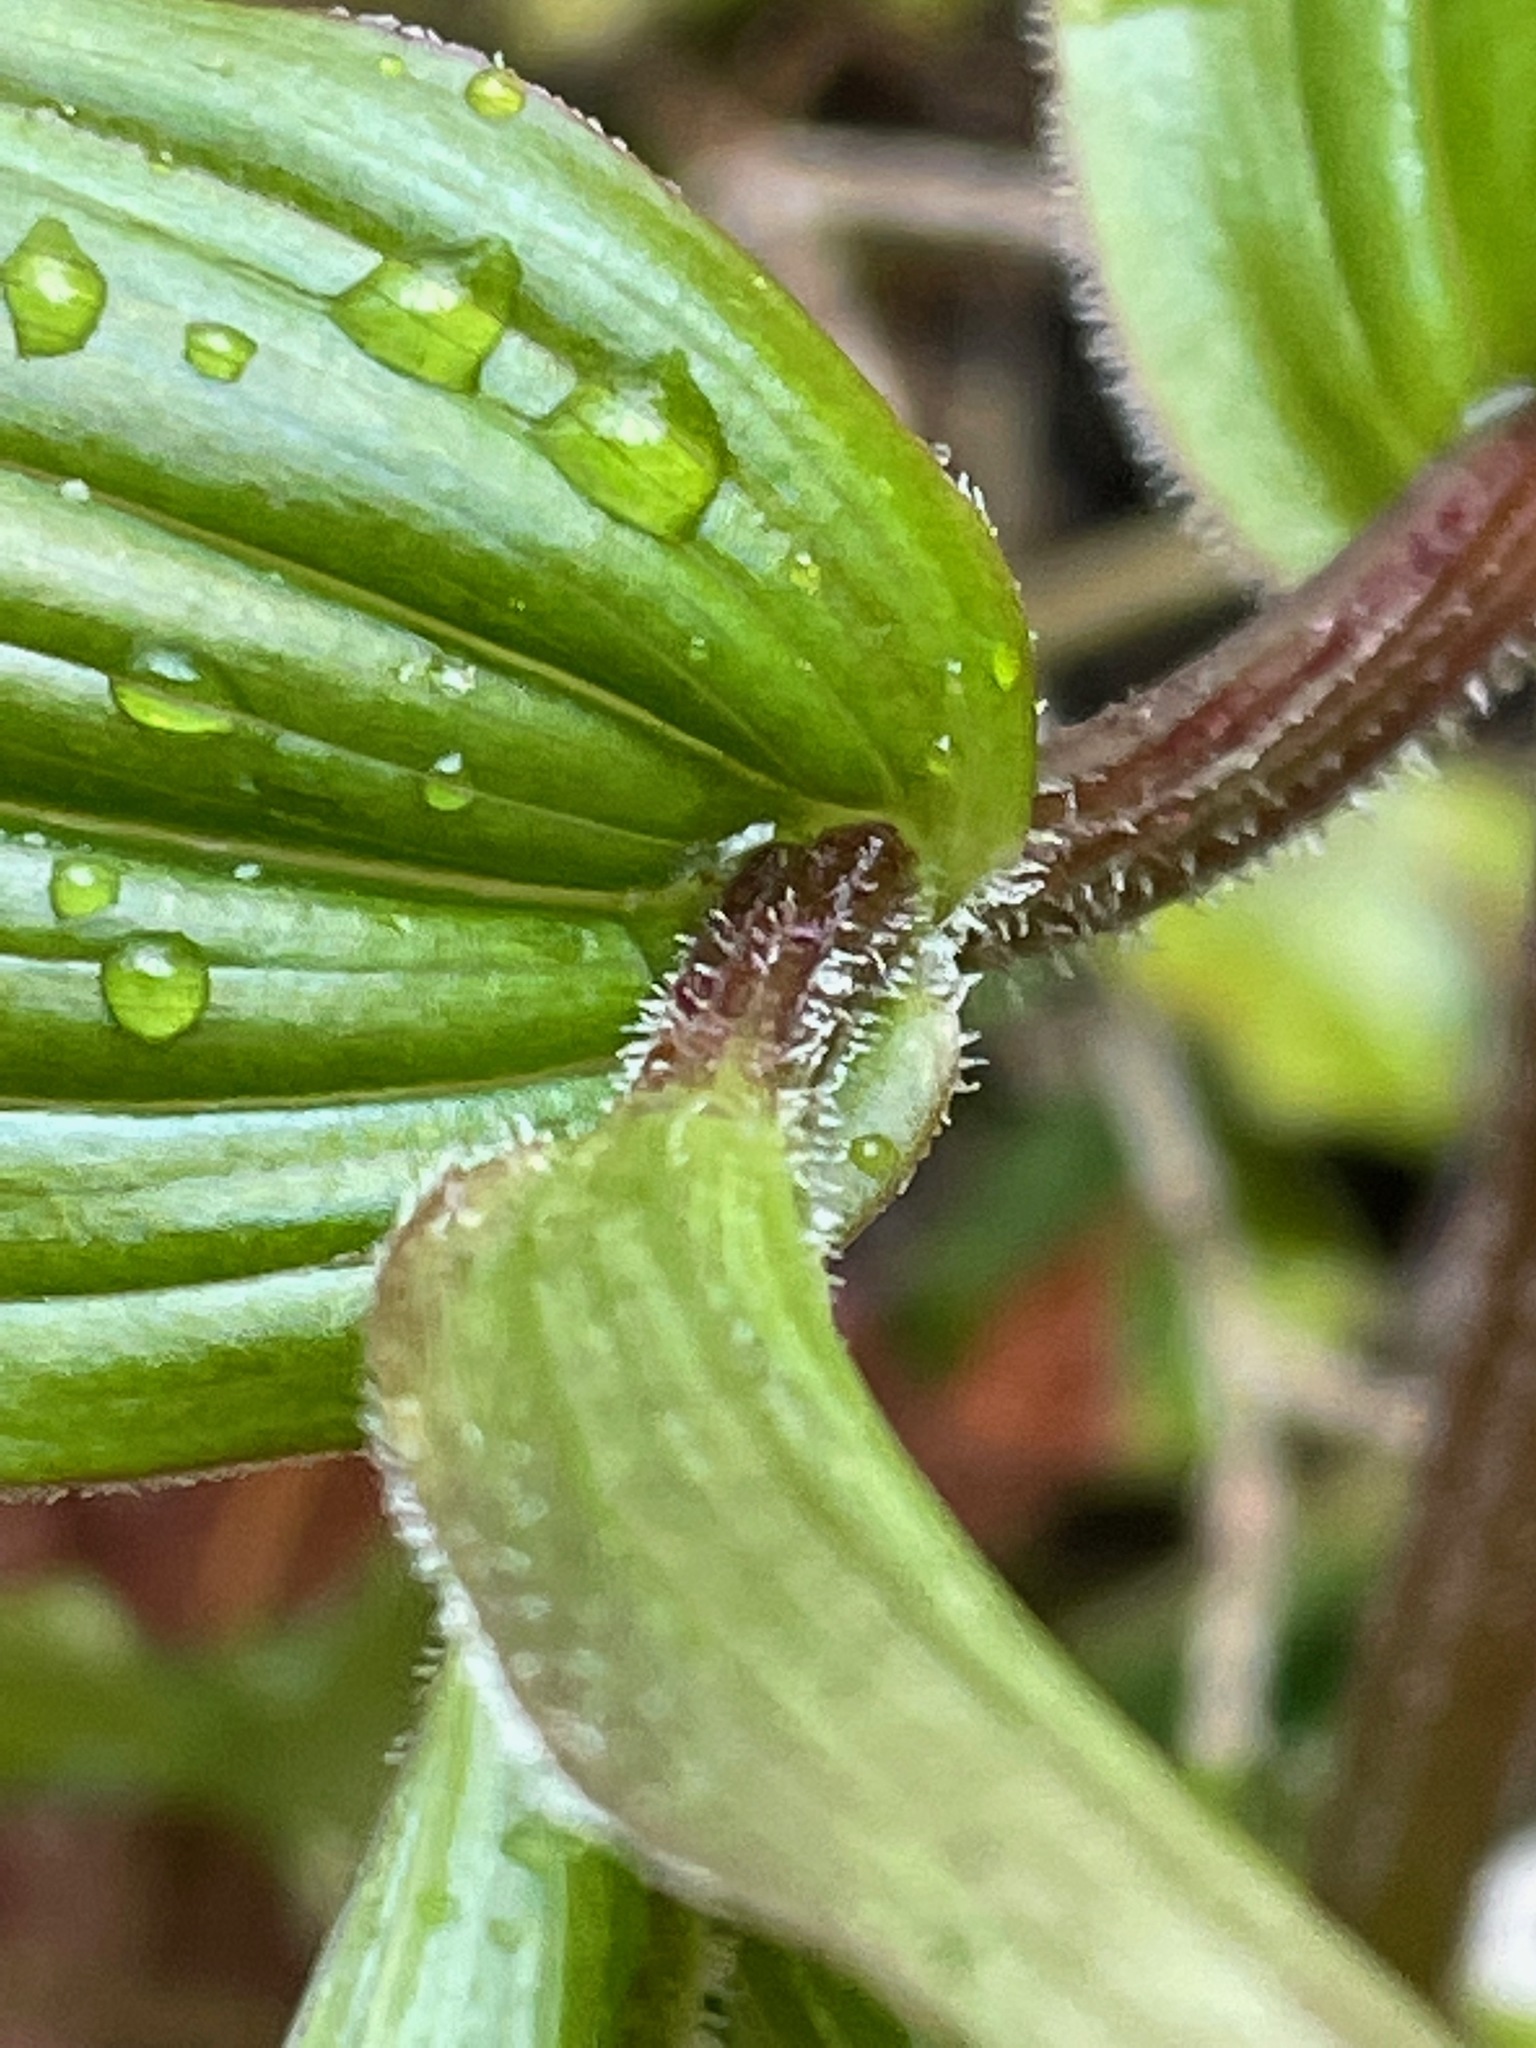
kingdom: Plantae
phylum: Tracheophyta
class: Liliopsida
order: Liliales
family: Liliaceae
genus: Streptopus
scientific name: Streptopus lanceolatus
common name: Rose mandarin
